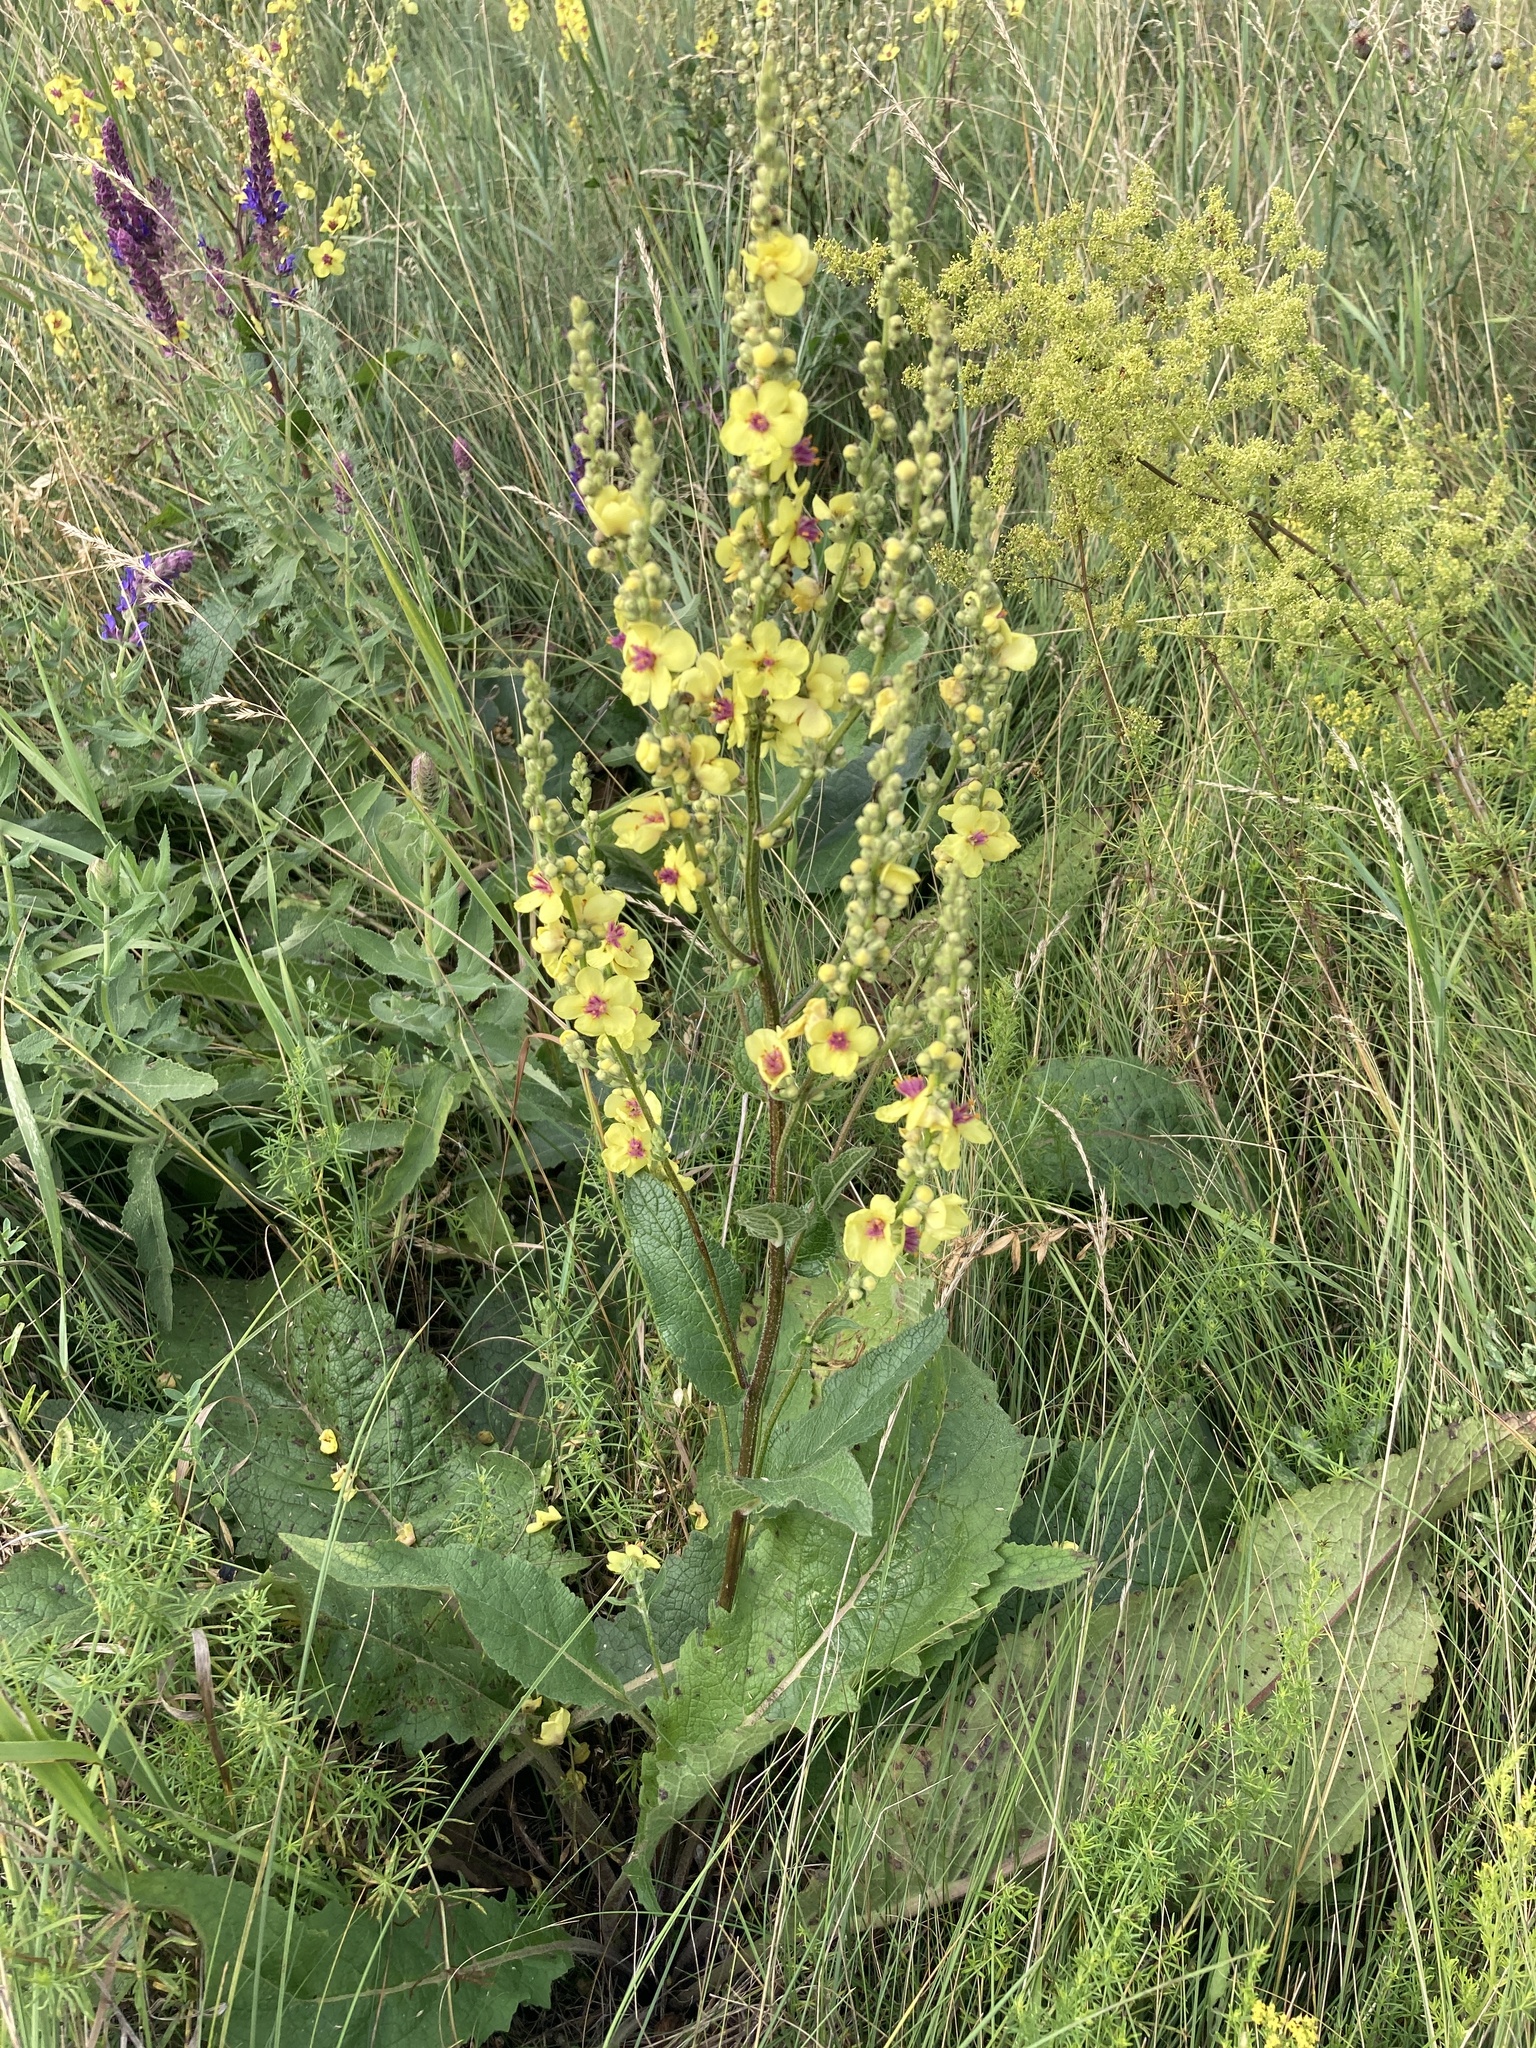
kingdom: Plantae
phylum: Tracheophyta
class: Magnoliopsida
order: Lamiales
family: Scrophulariaceae
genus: Verbascum
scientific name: Verbascum chaixii
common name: Nettle-leaved mullein
